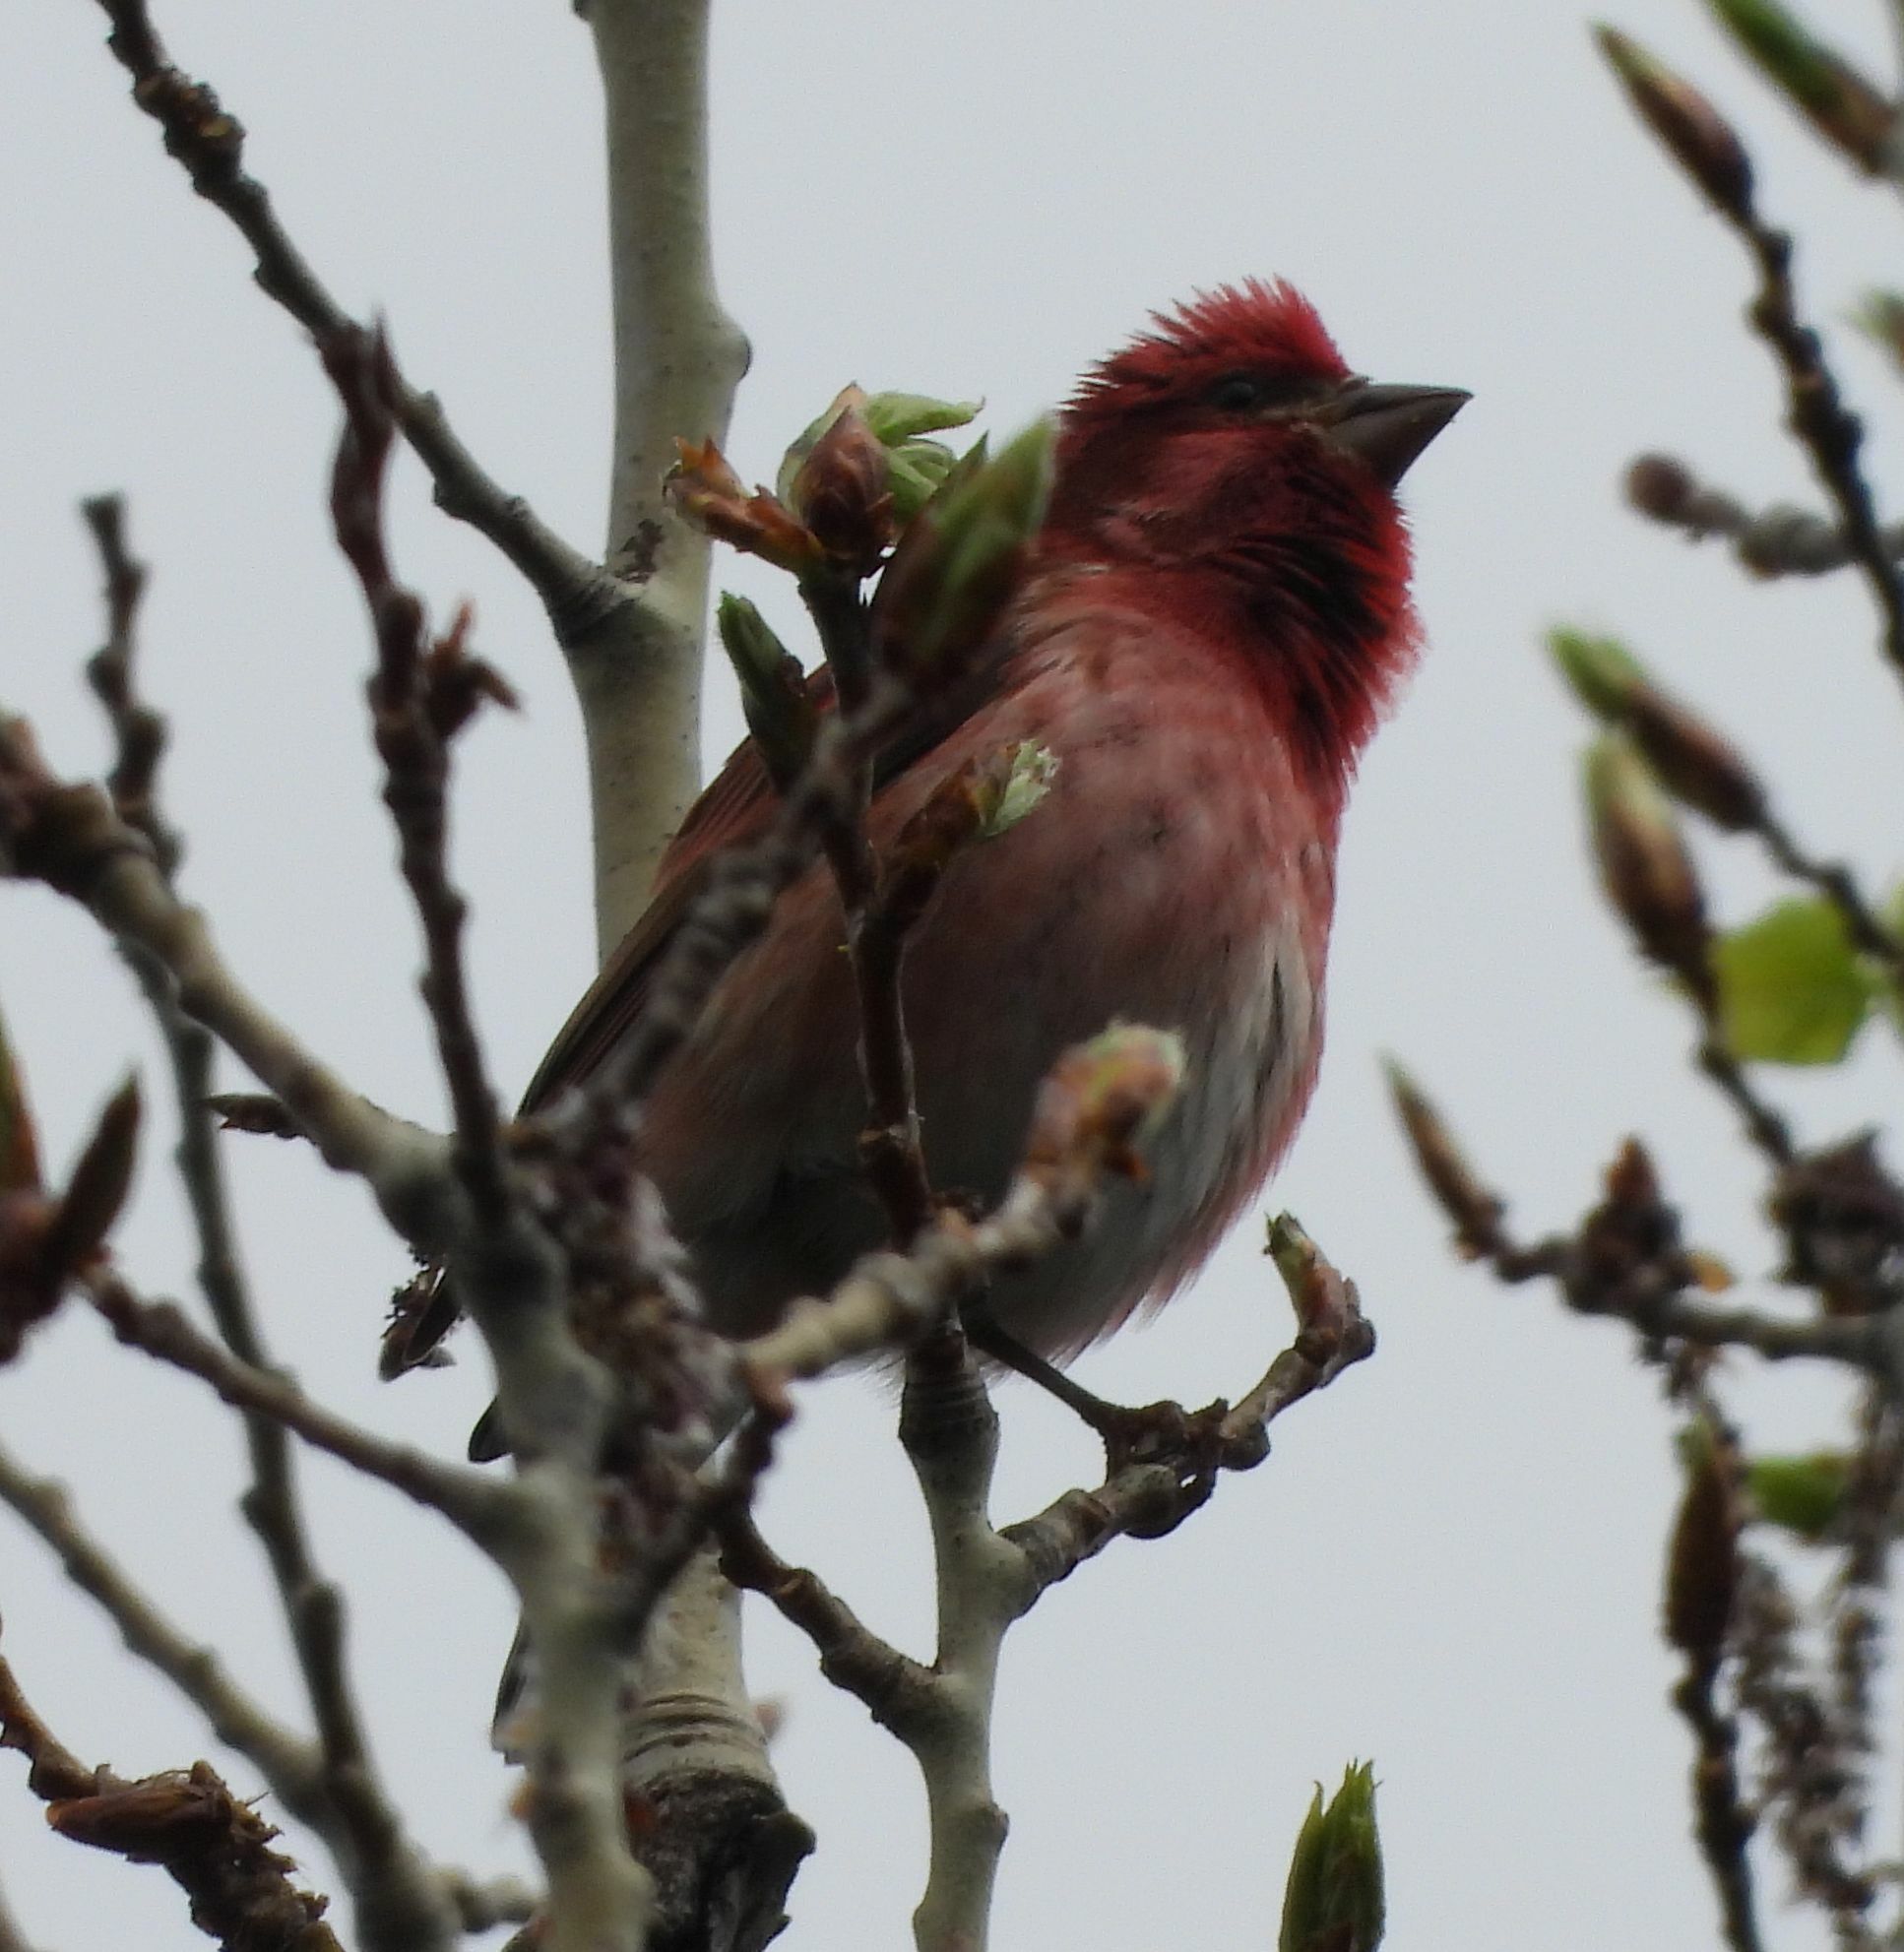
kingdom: Animalia
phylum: Chordata
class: Aves
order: Passeriformes
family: Fringillidae
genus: Haemorhous
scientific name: Haemorhous purpureus
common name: Purple finch
